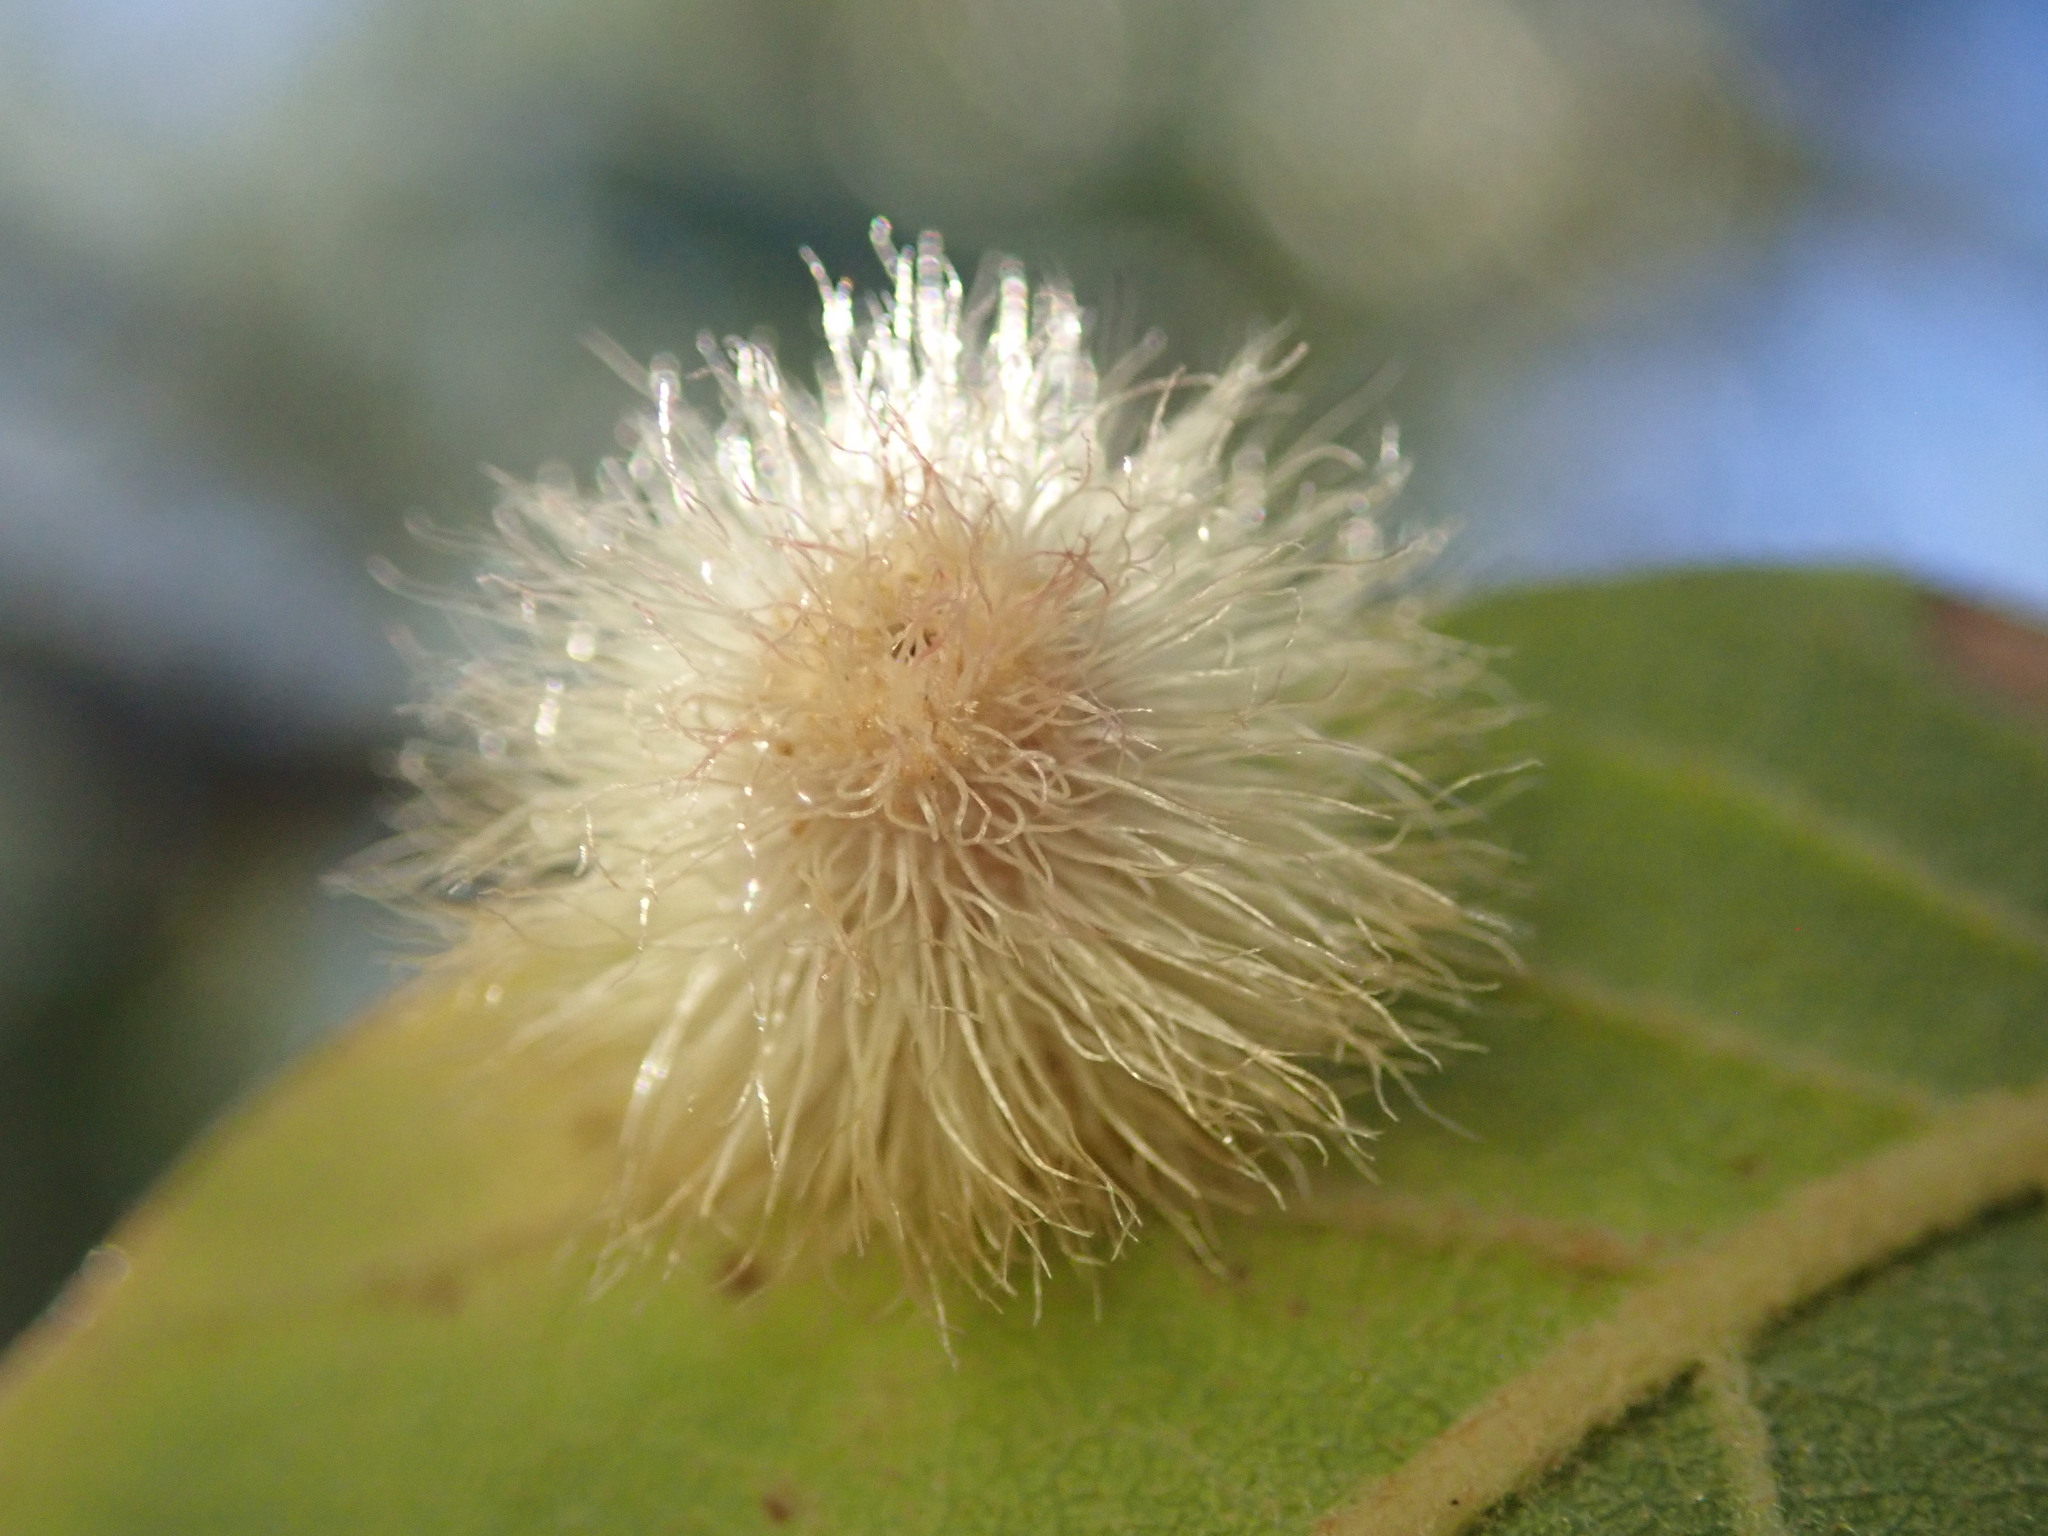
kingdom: Animalia
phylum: Arthropoda
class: Insecta
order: Hymenoptera
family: Cynipidae
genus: Andricus
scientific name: Andricus
